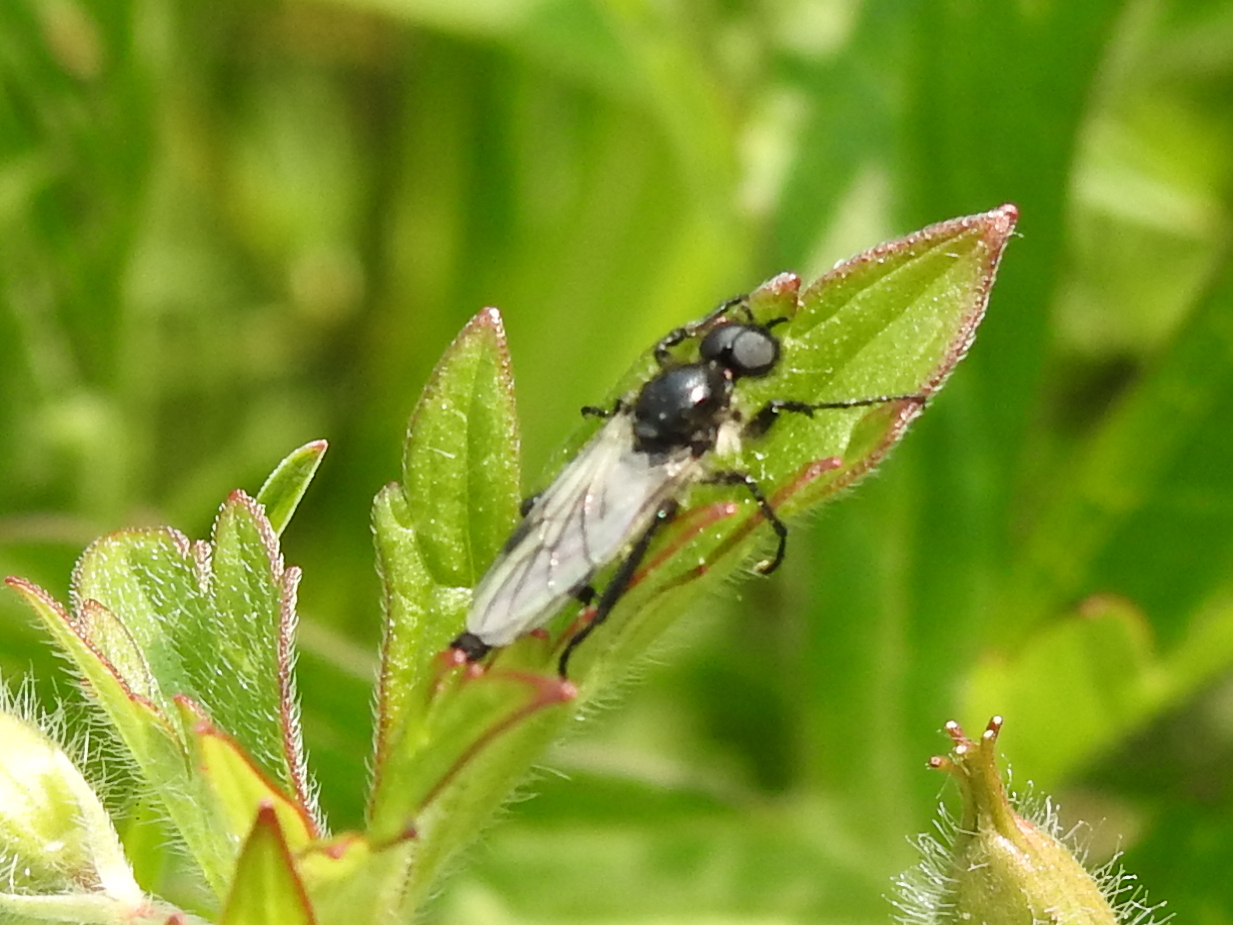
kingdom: Animalia
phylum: Arthropoda
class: Insecta
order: Diptera
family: Bibionidae
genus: Bibio
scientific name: Bibio albipennis
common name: White-winged march fly
